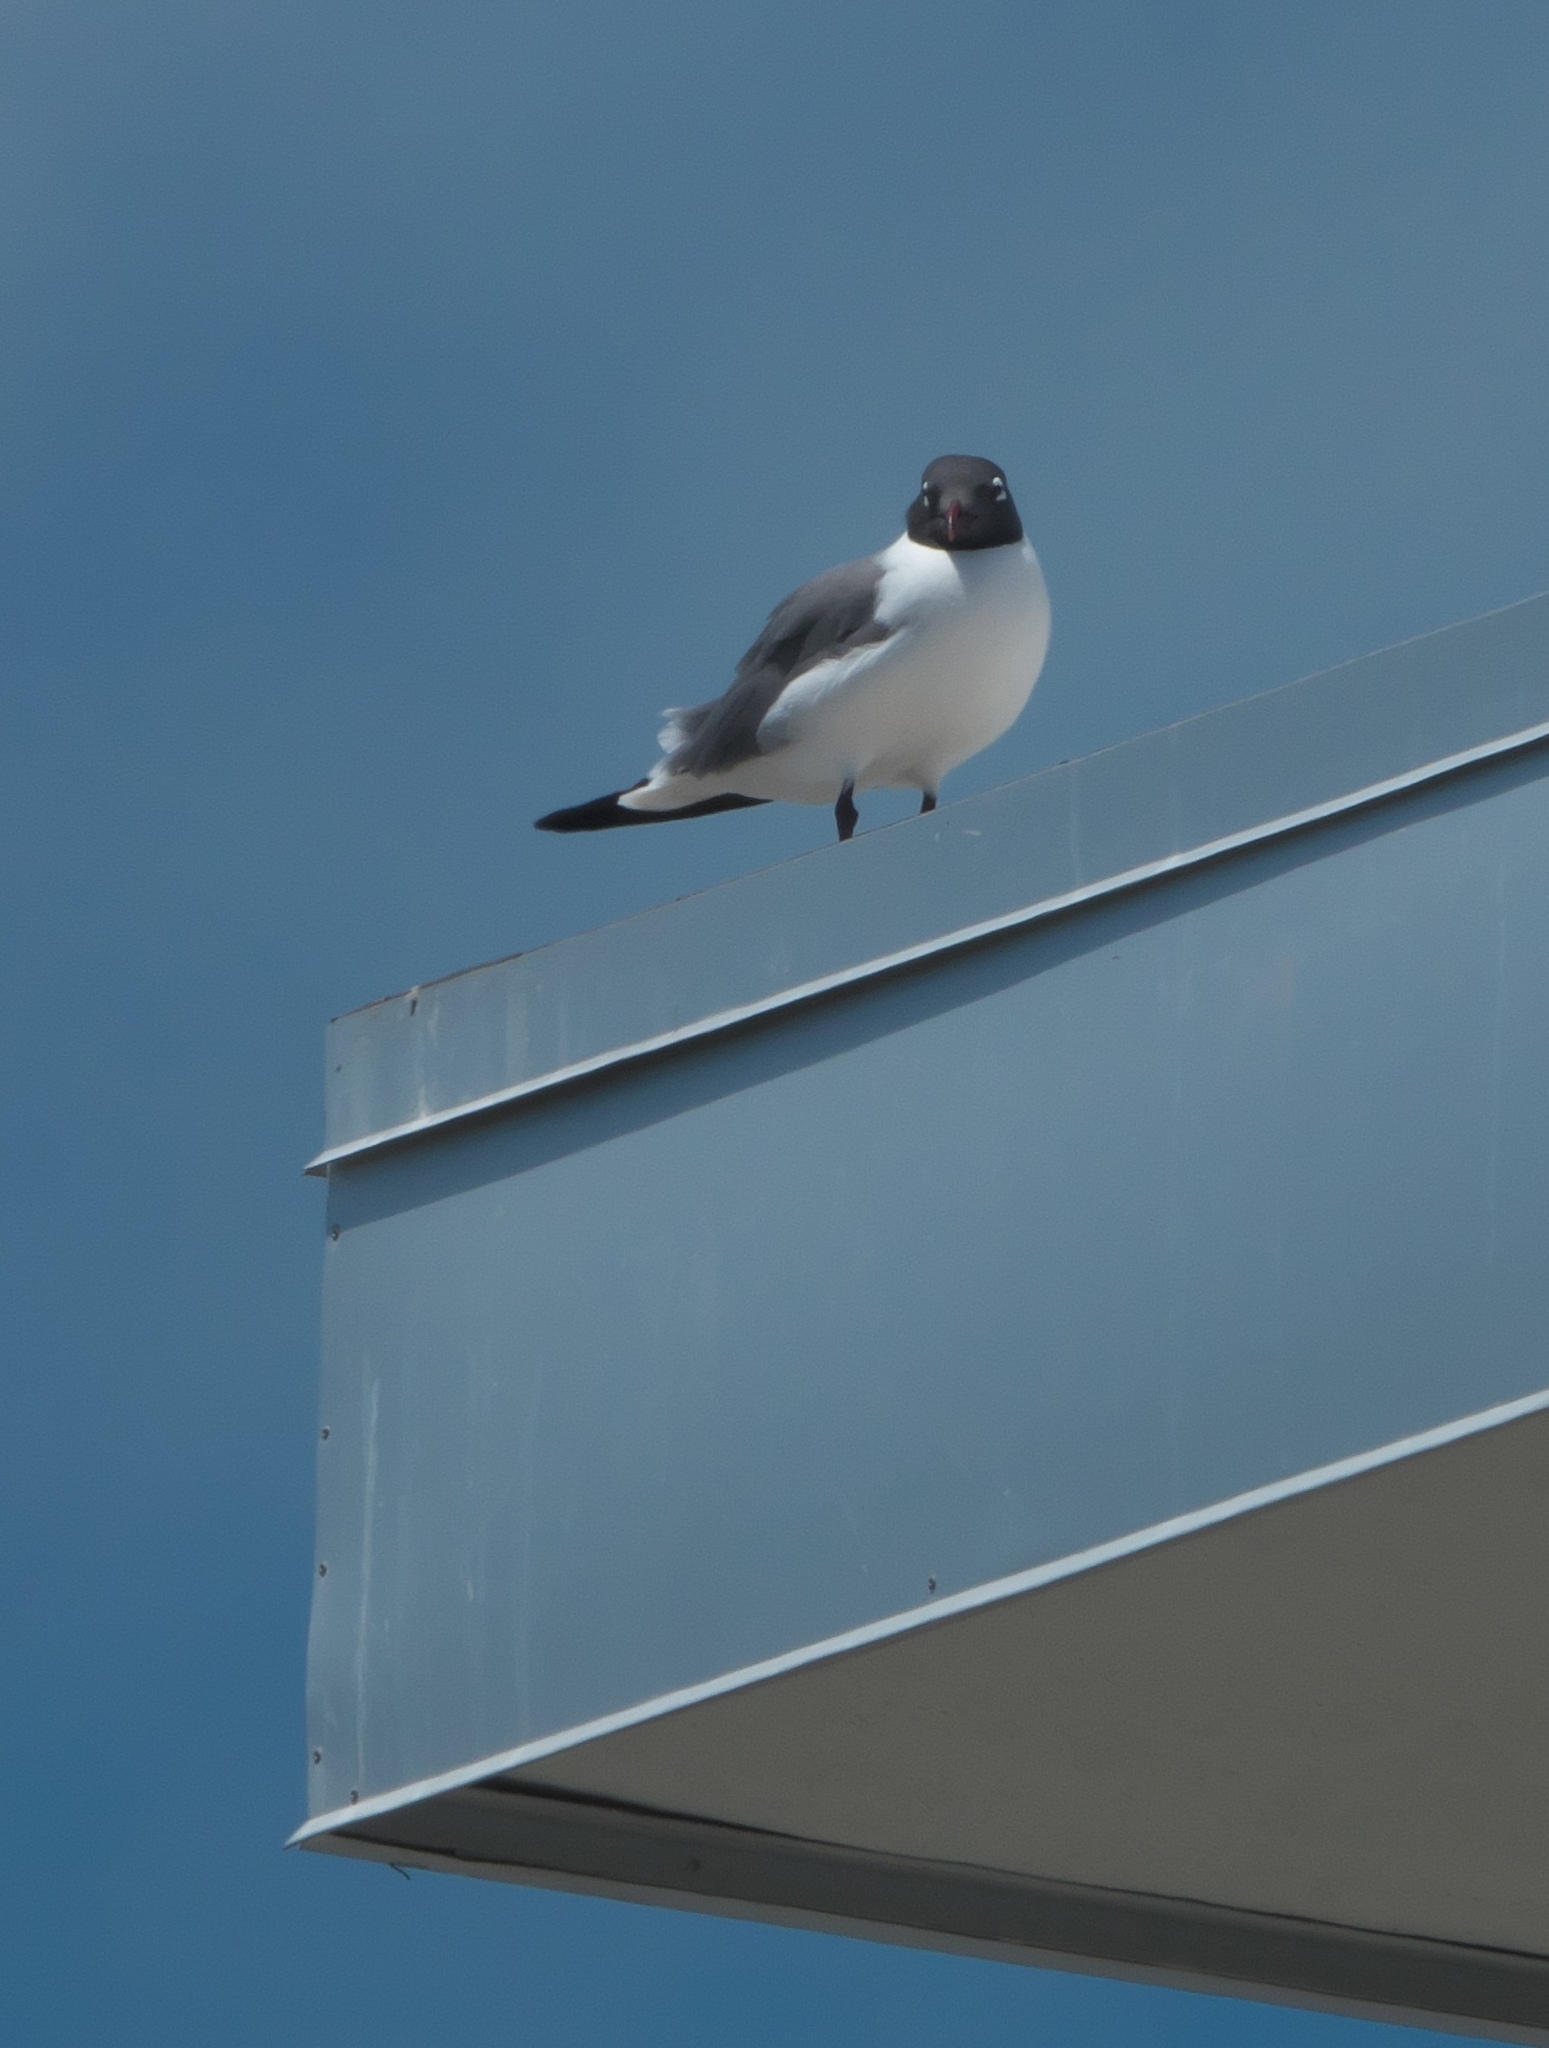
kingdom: Animalia
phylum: Chordata
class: Aves
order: Charadriiformes
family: Laridae
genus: Leucophaeus
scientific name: Leucophaeus atricilla
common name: Laughing gull
